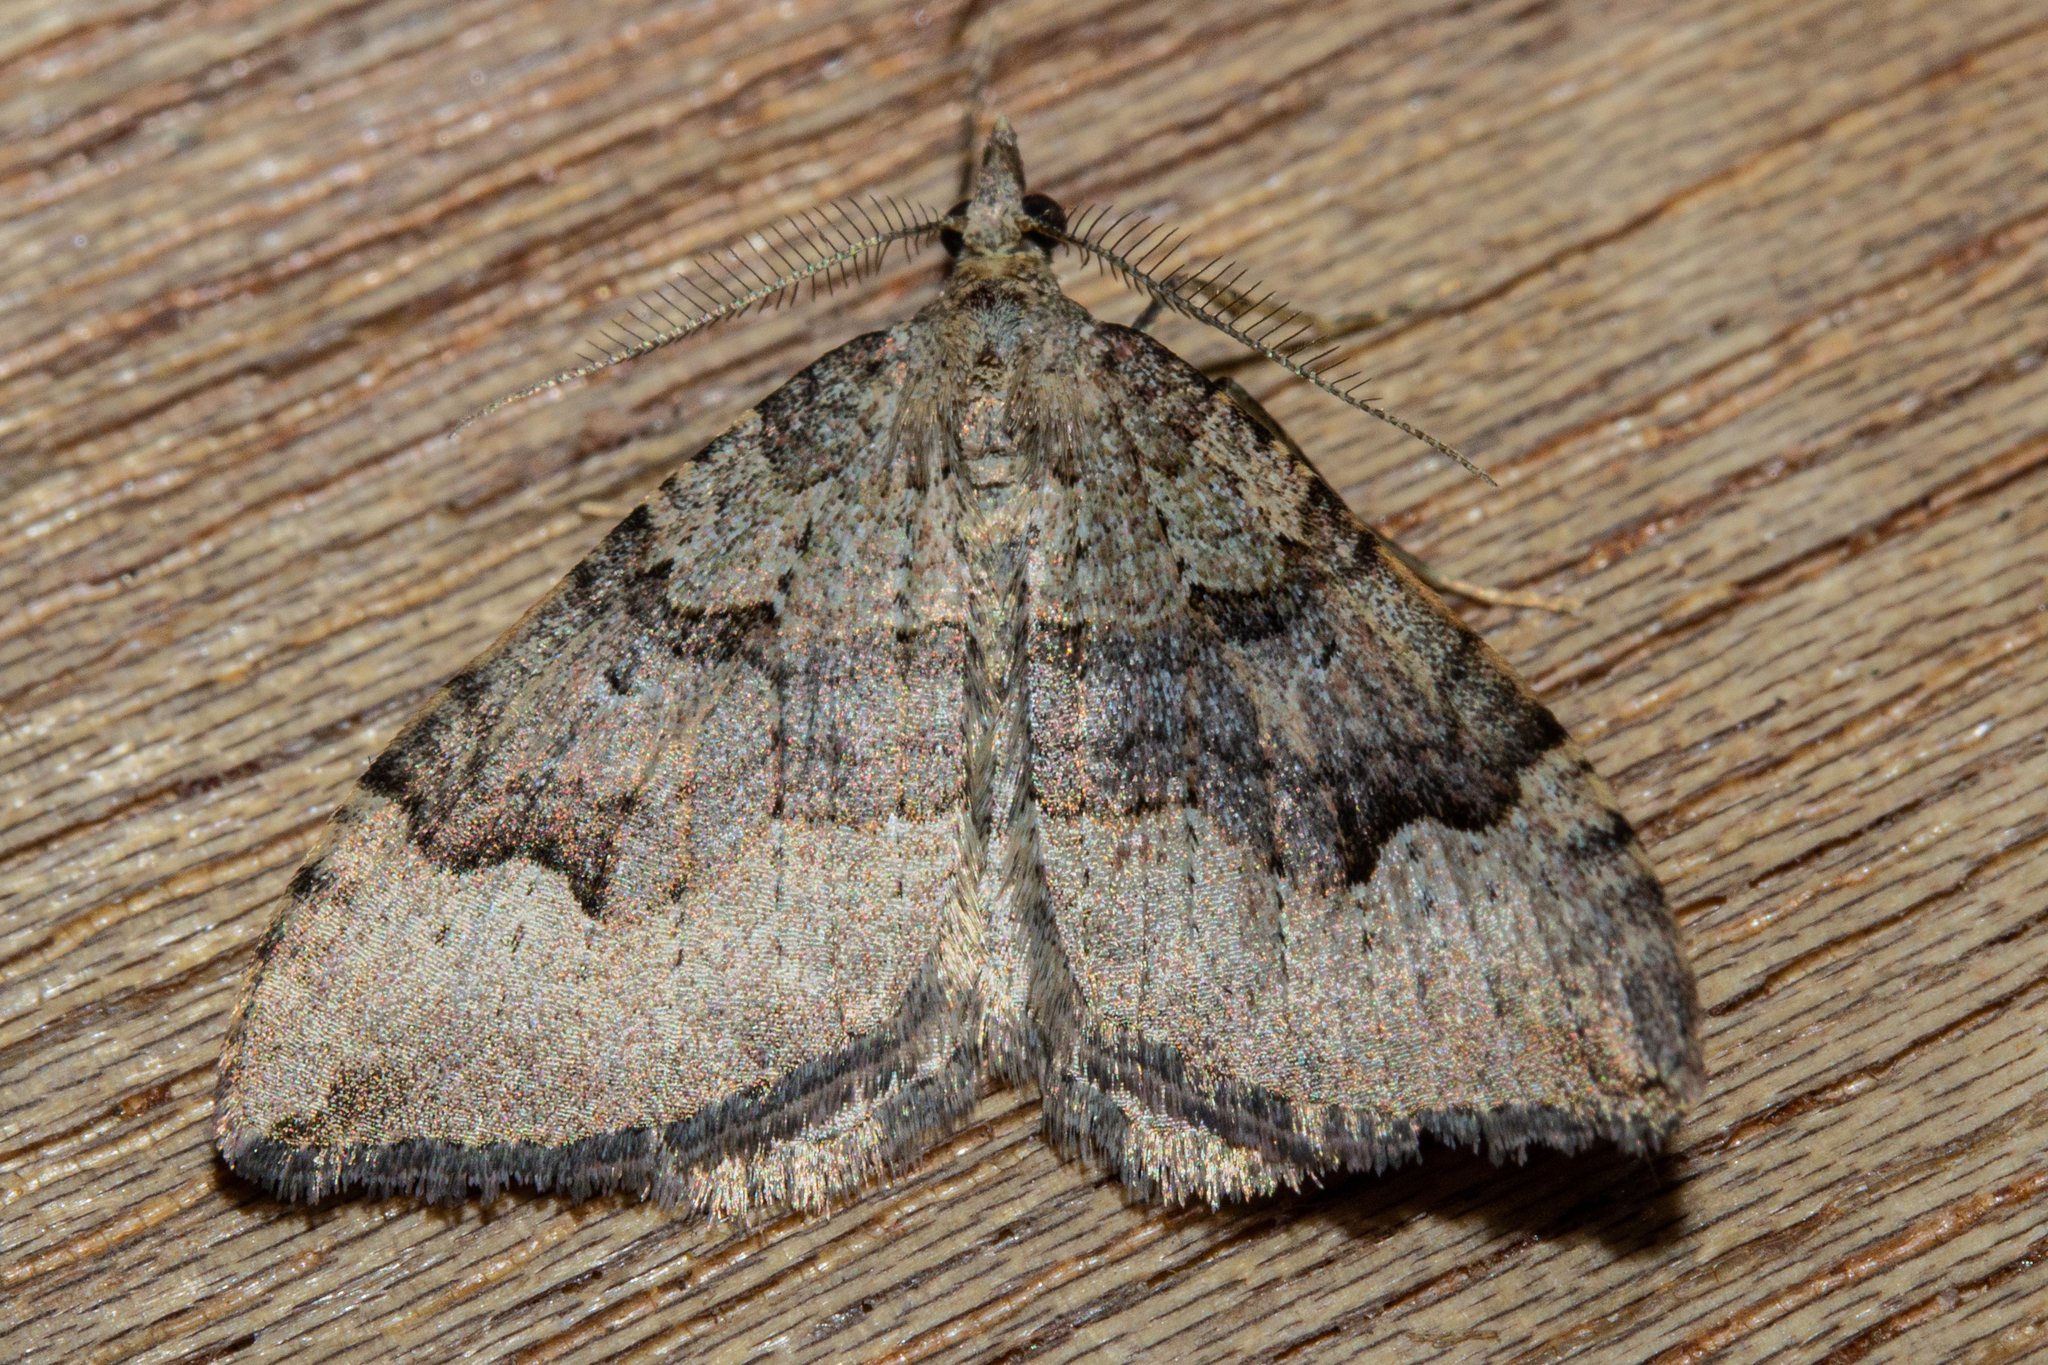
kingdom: Animalia
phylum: Arthropoda
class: Insecta
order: Lepidoptera
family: Geometridae
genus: Epyaxa
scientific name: Epyaxa rosearia
